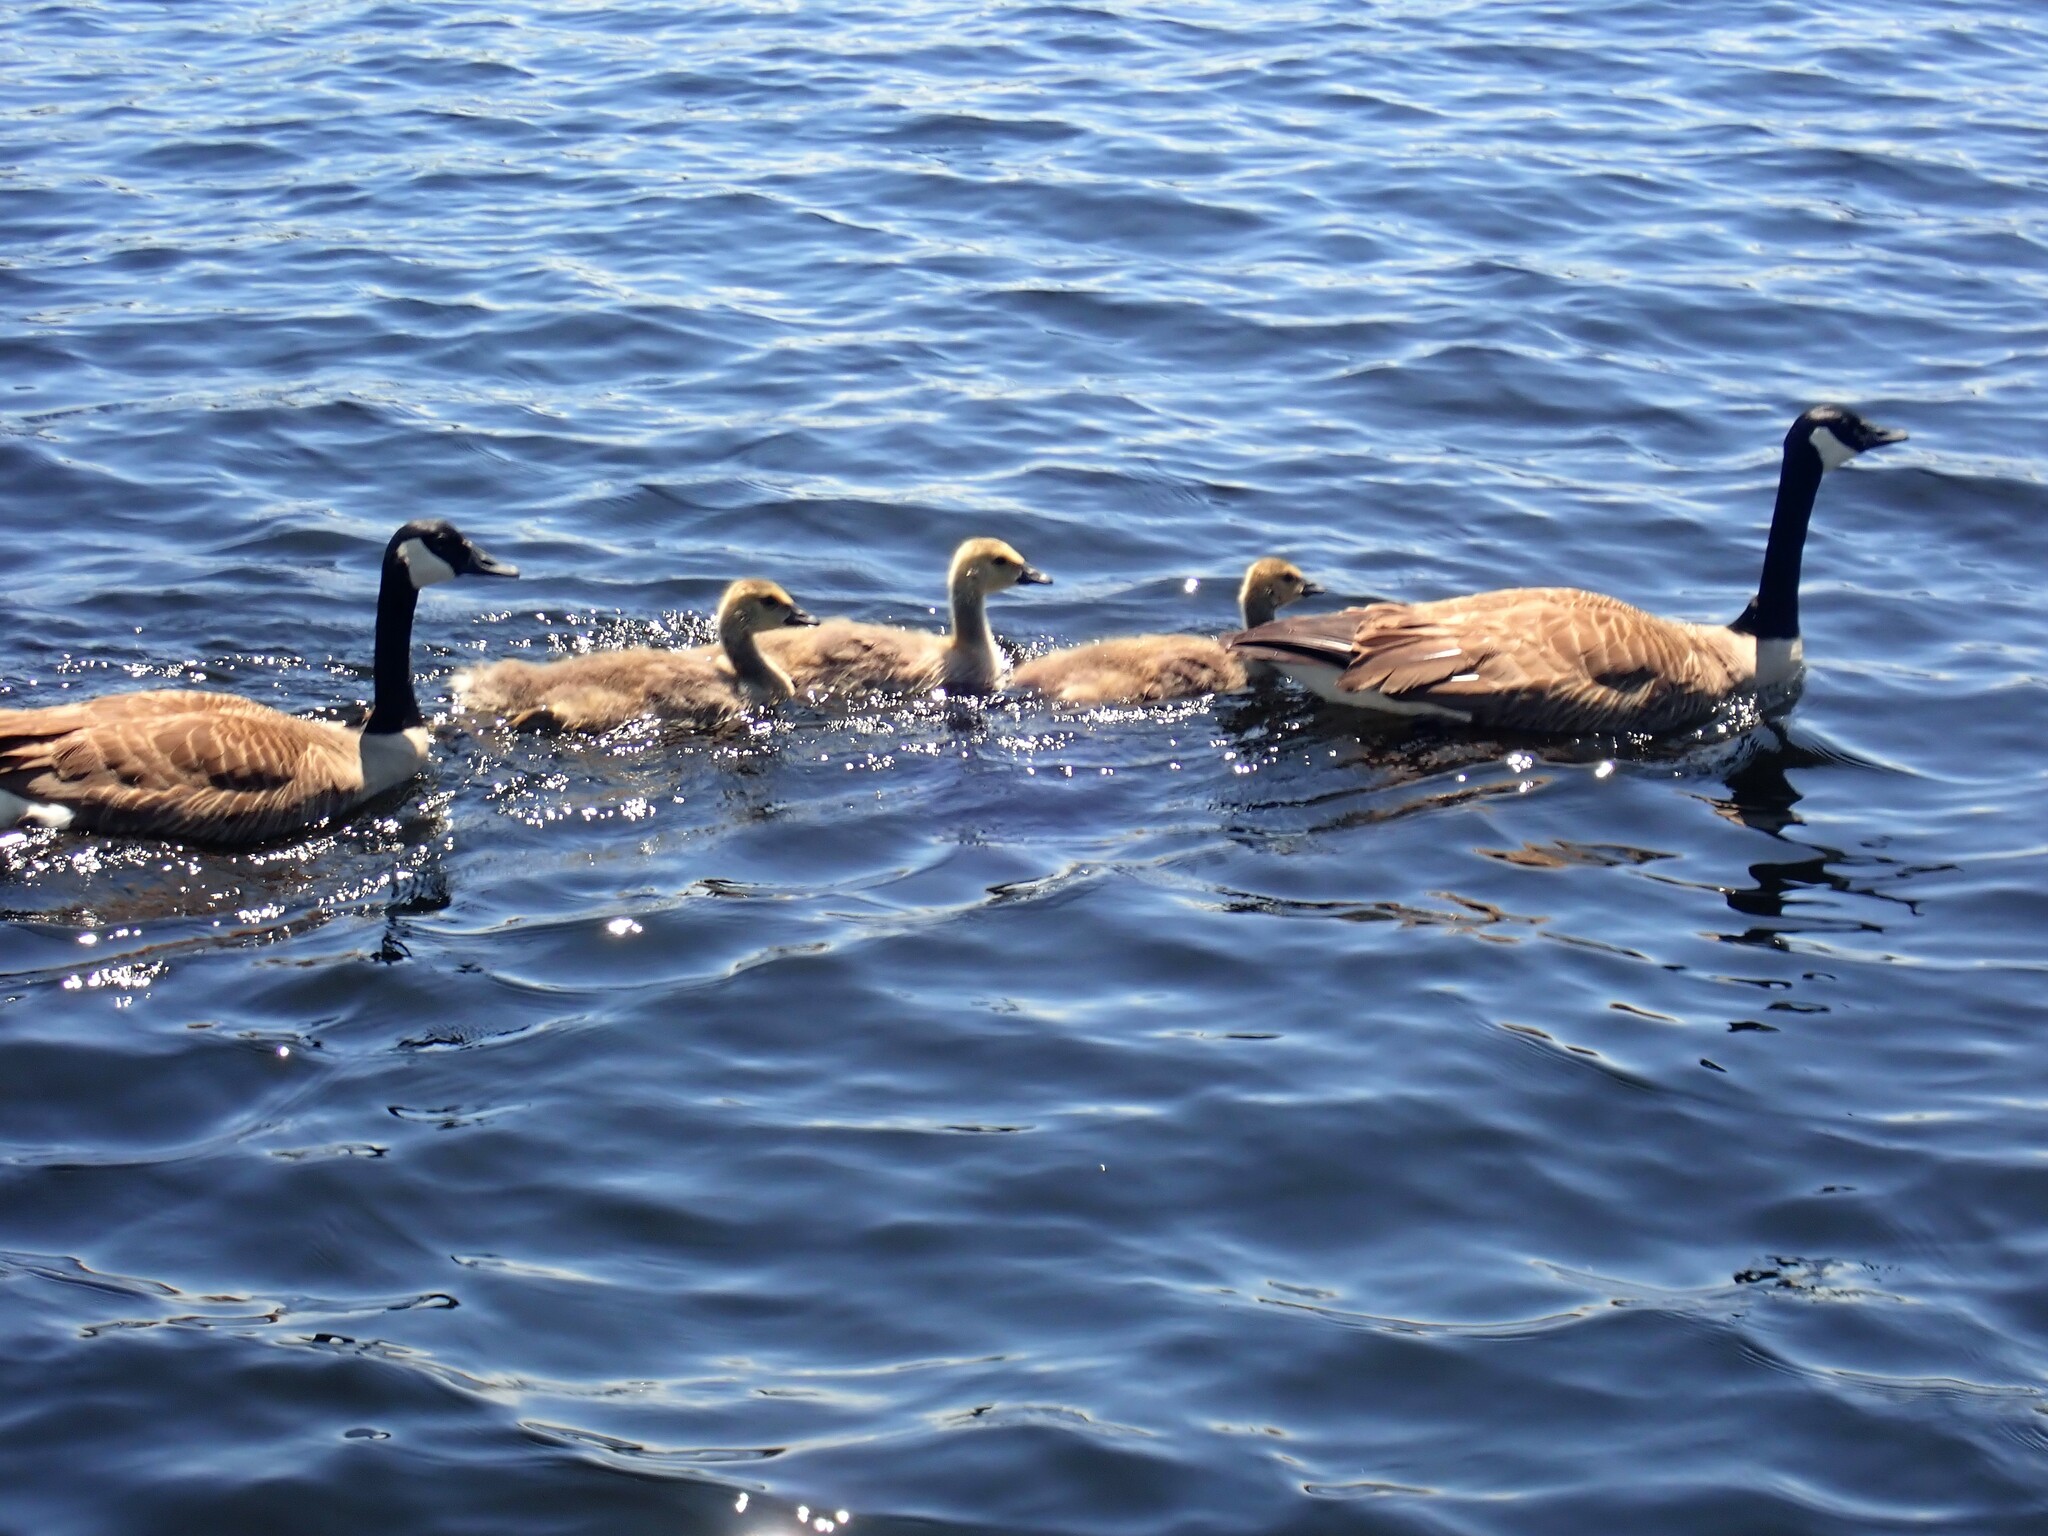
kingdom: Animalia
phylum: Chordata
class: Aves
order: Anseriformes
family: Anatidae
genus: Branta
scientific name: Branta canadensis
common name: Canada goose
